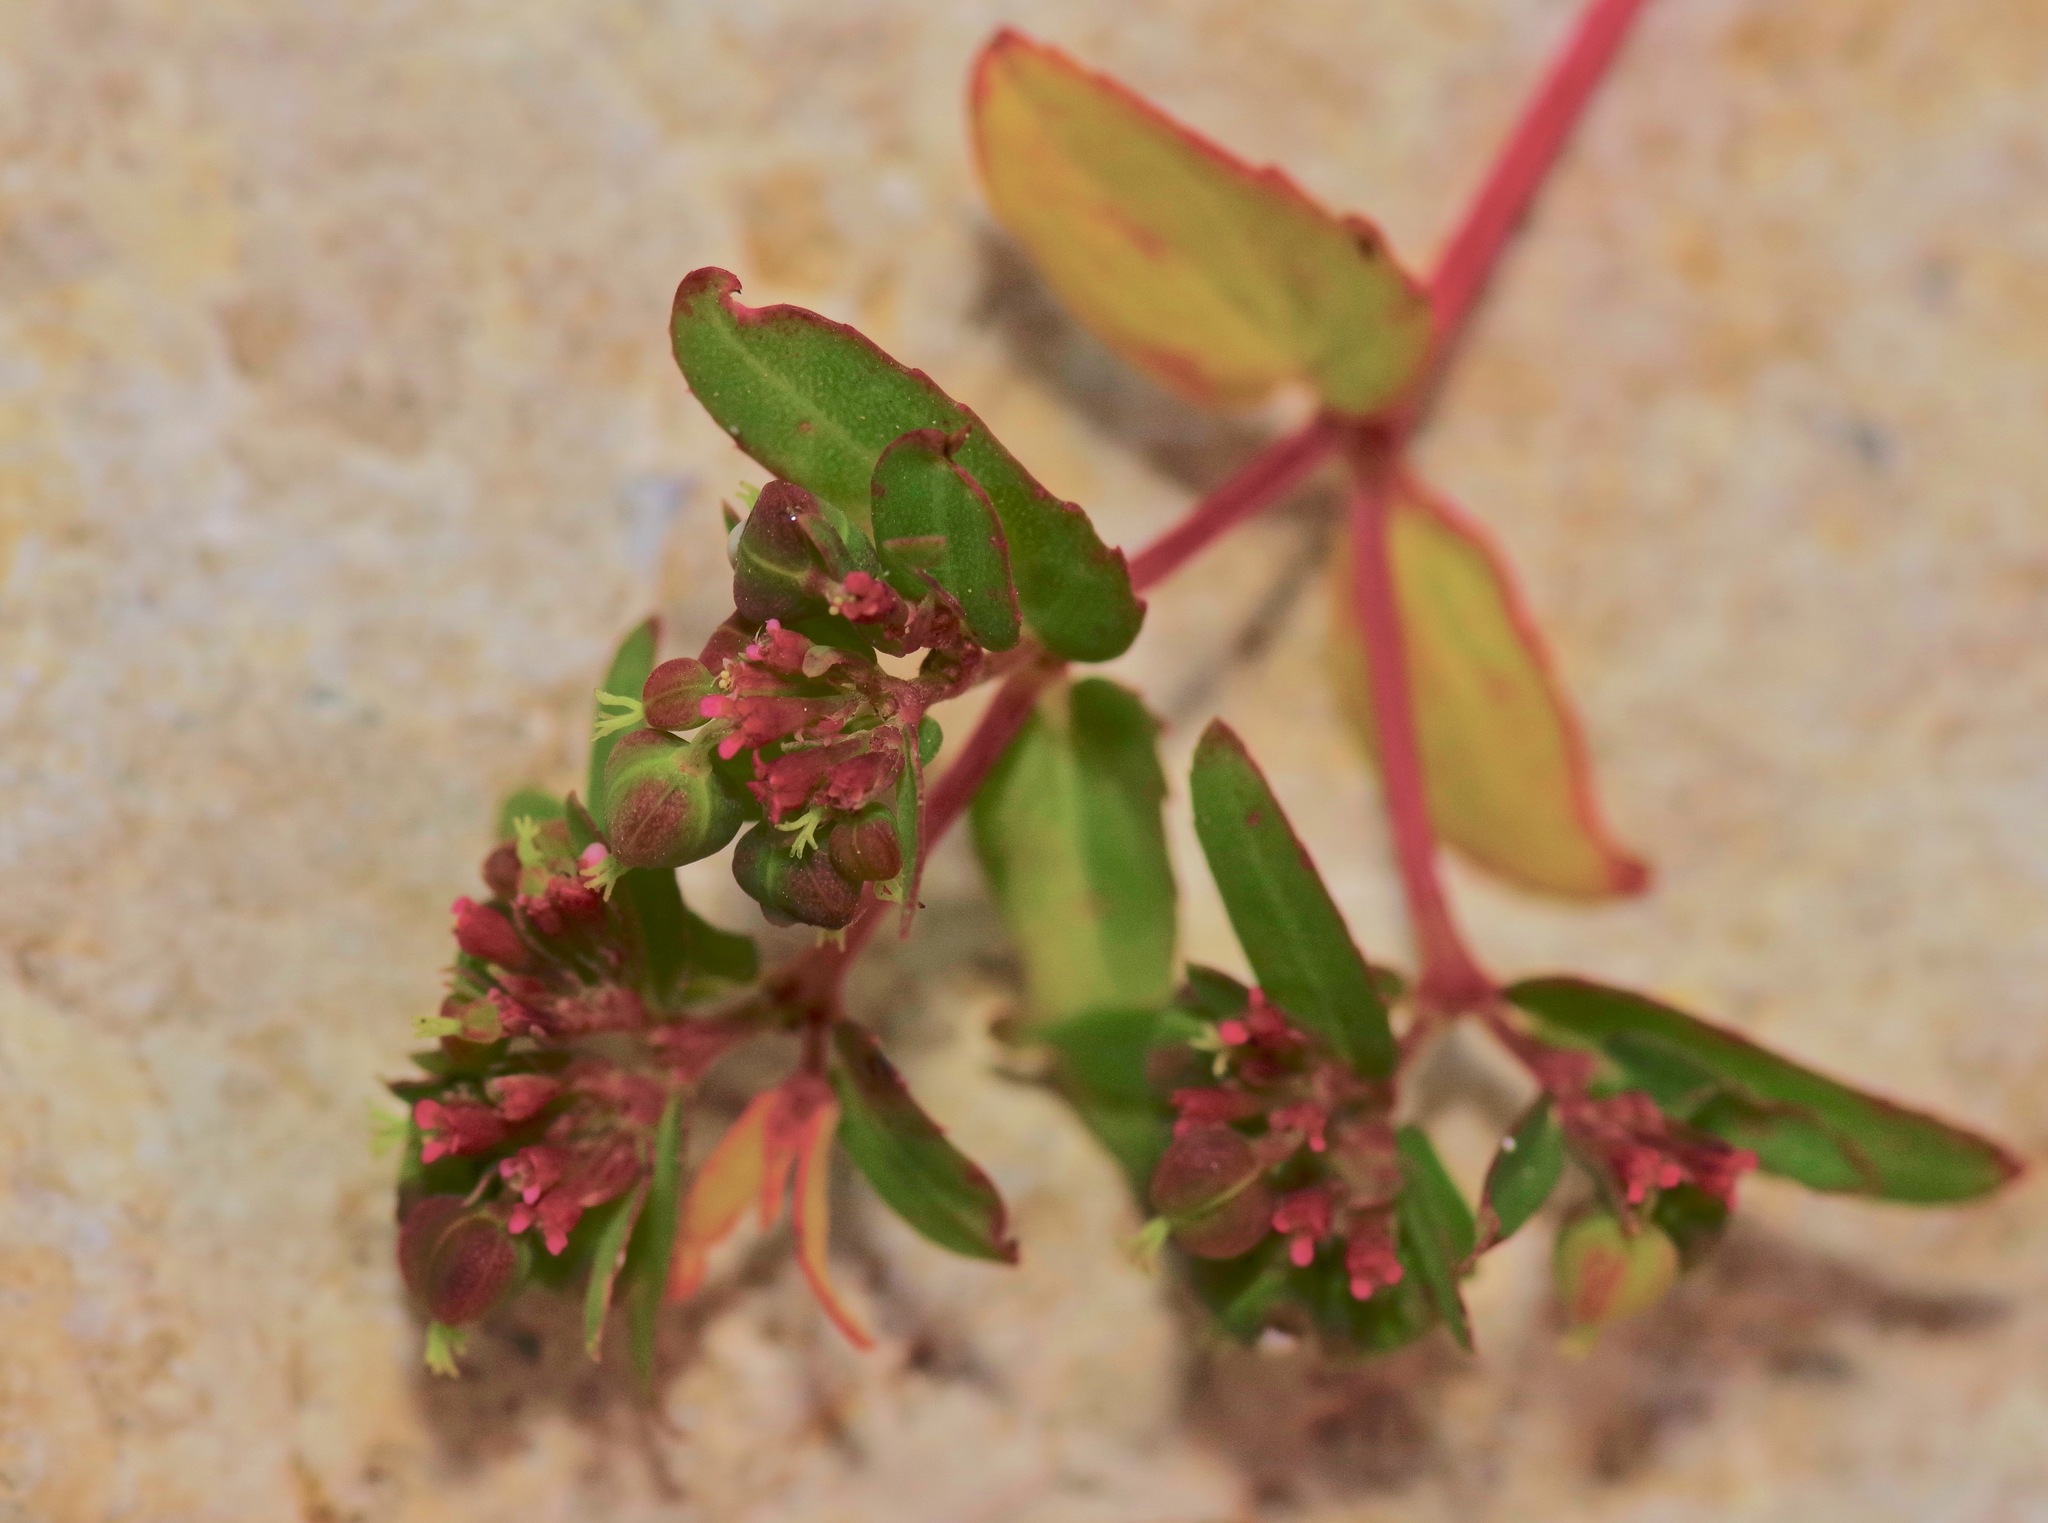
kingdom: Plantae
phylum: Tracheophyta
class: Magnoliopsida
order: Malpighiales
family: Euphorbiaceae
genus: Euphorbia
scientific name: Euphorbia nutans
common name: Eyebane
